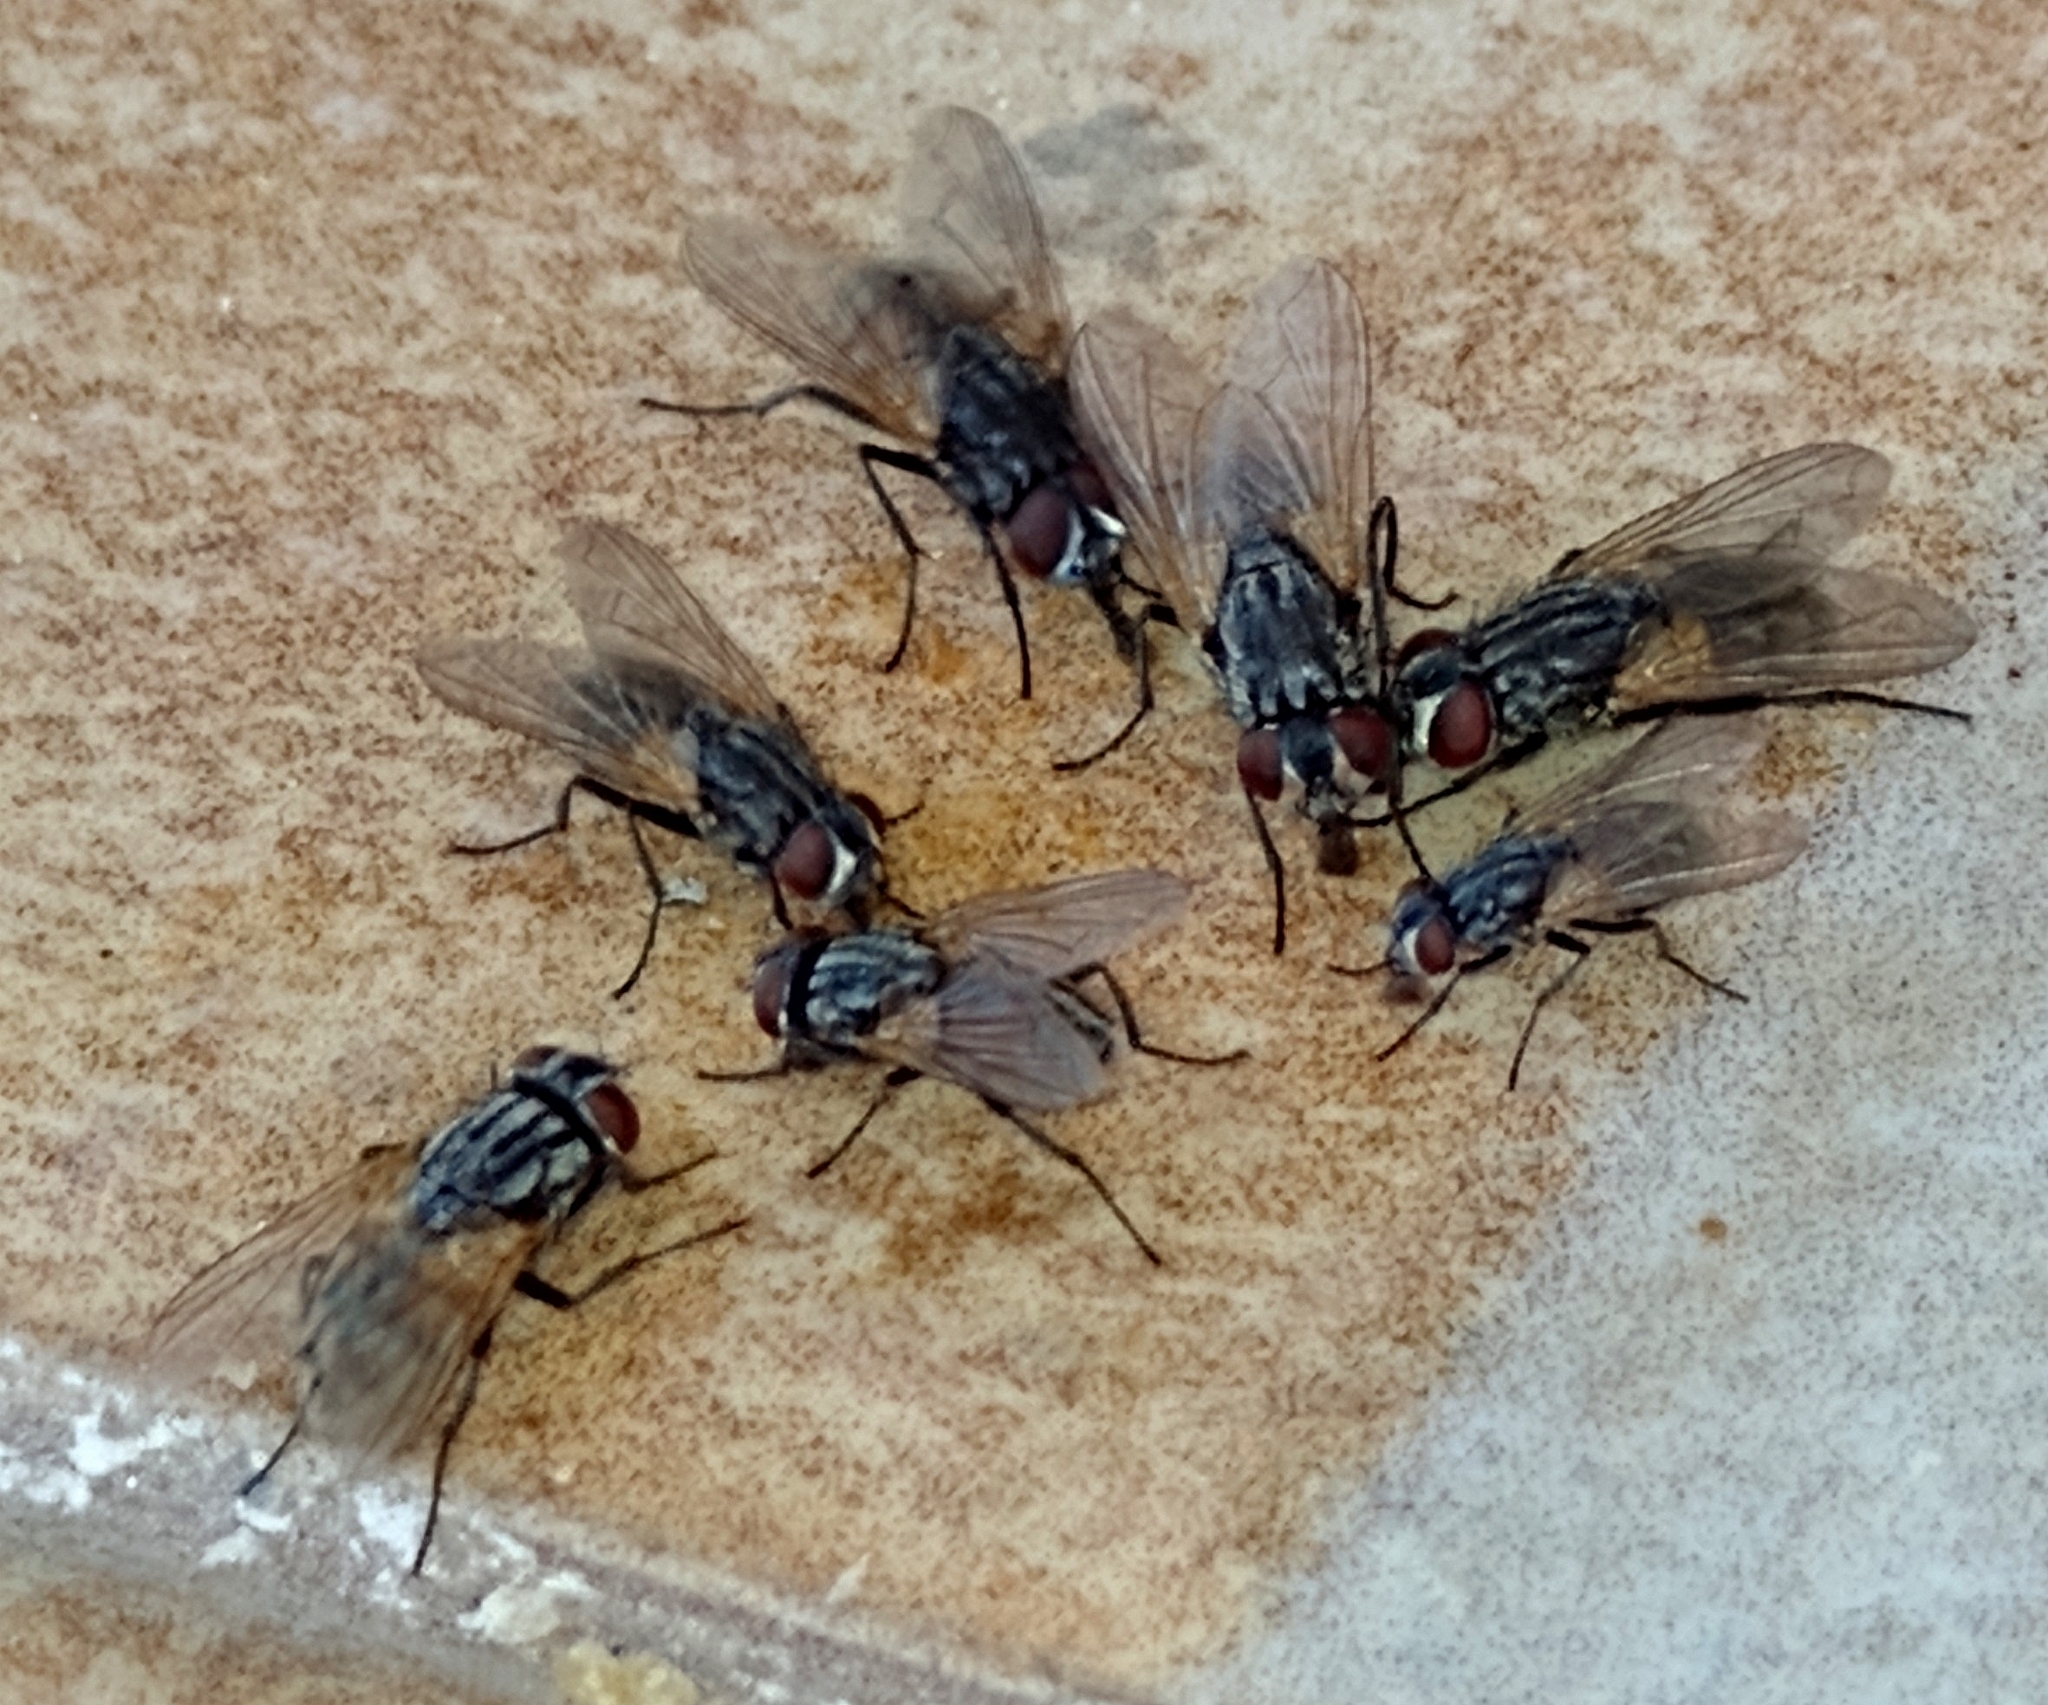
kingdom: Animalia
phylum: Arthropoda
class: Insecta
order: Diptera
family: Muscidae
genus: Musca
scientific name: Musca domestica
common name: House fly
